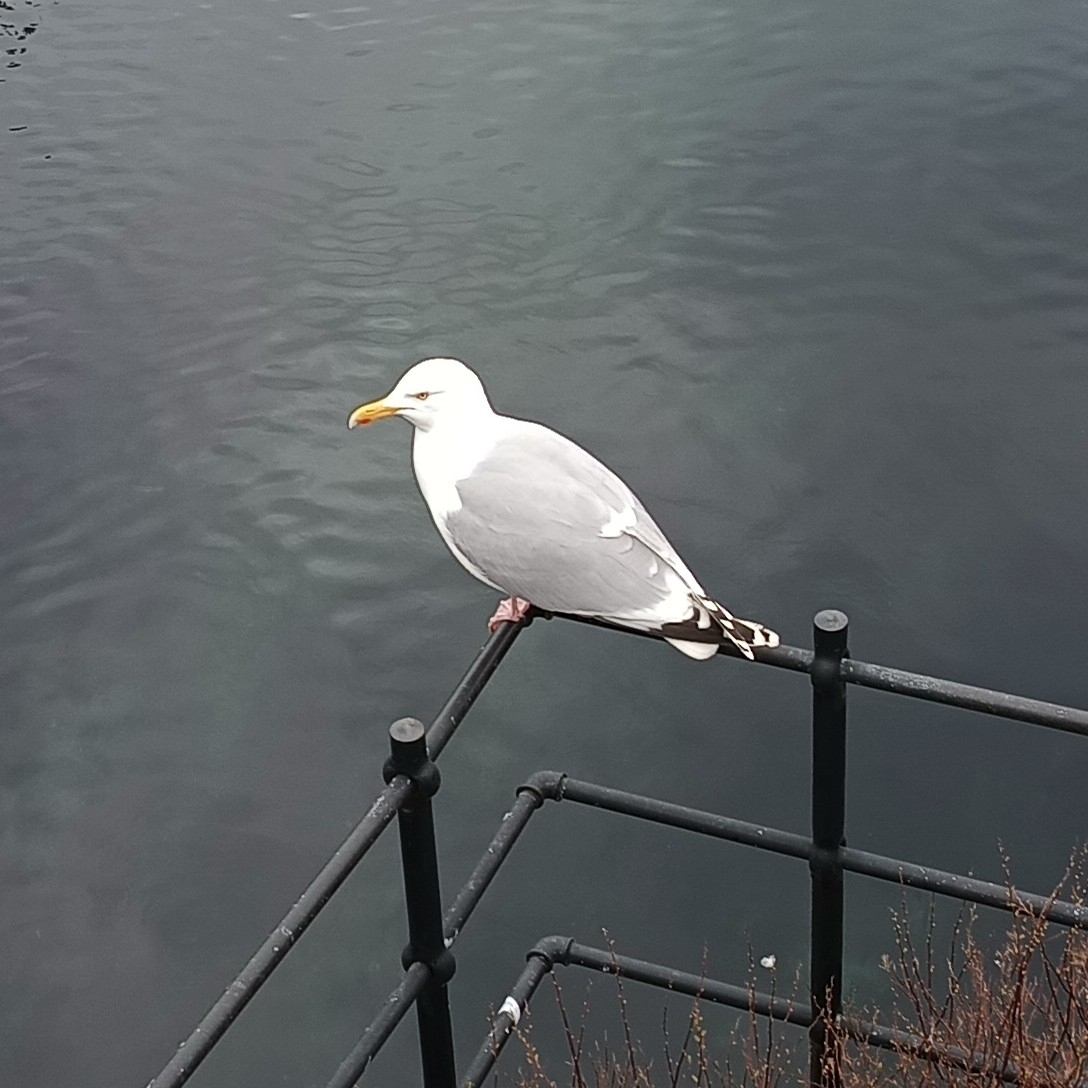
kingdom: Animalia
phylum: Chordata
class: Aves
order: Charadriiformes
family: Laridae
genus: Larus
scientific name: Larus argentatus
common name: Herring gull
